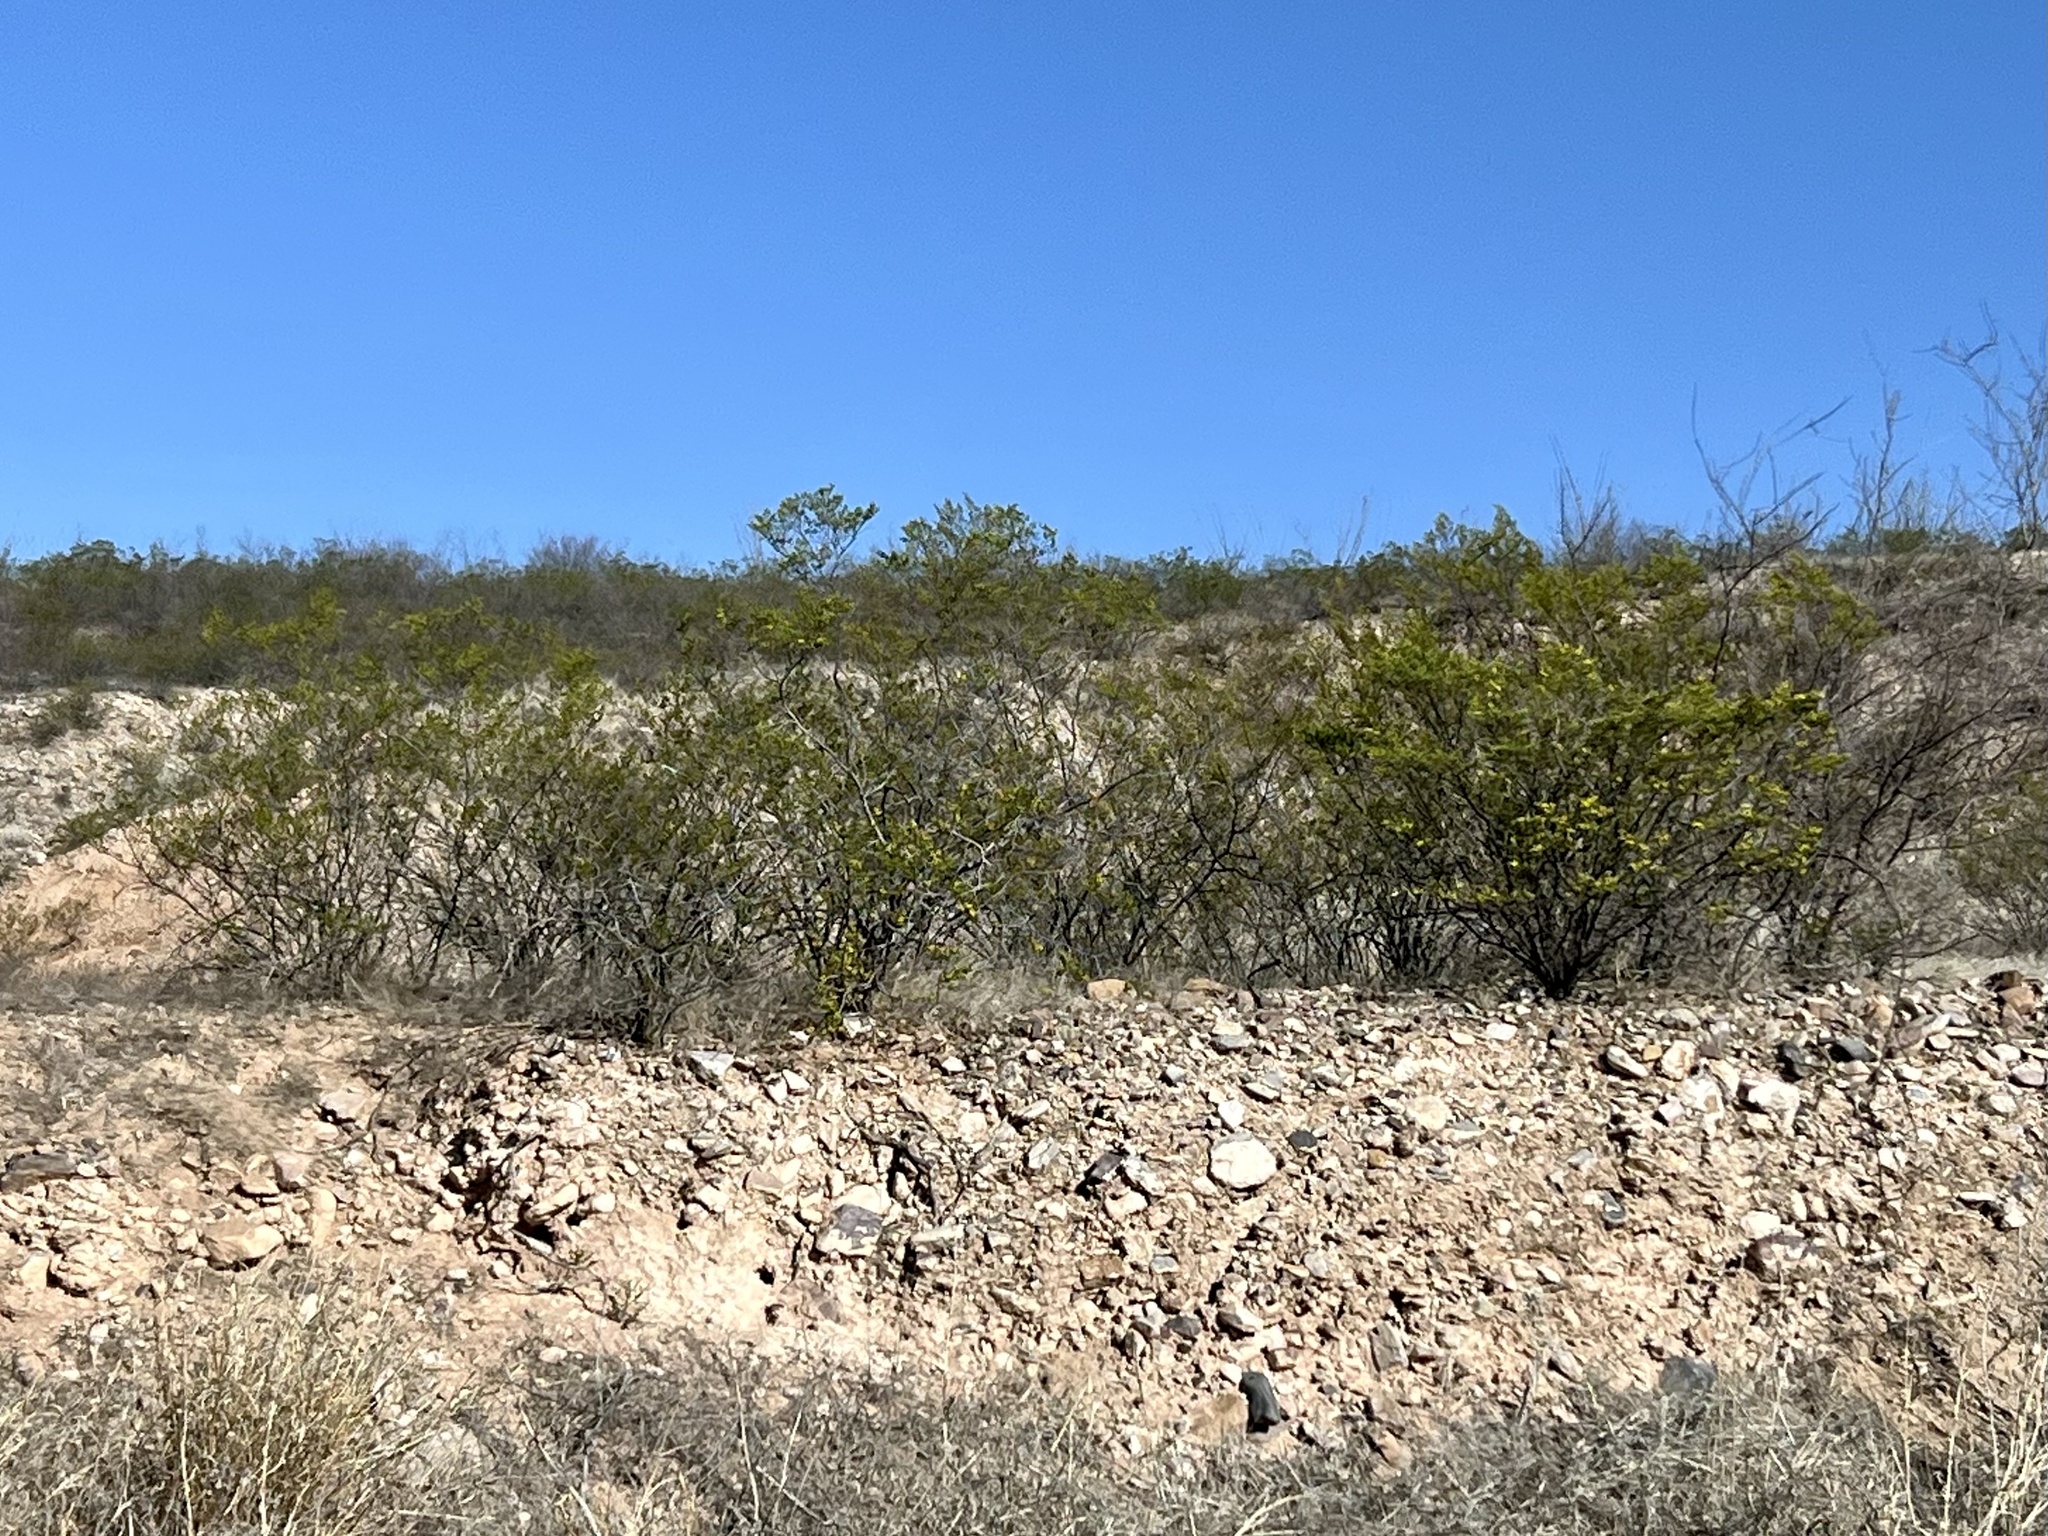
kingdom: Plantae
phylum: Tracheophyta
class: Magnoliopsida
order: Zygophyllales
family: Zygophyllaceae
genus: Larrea
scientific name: Larrea tridentata
